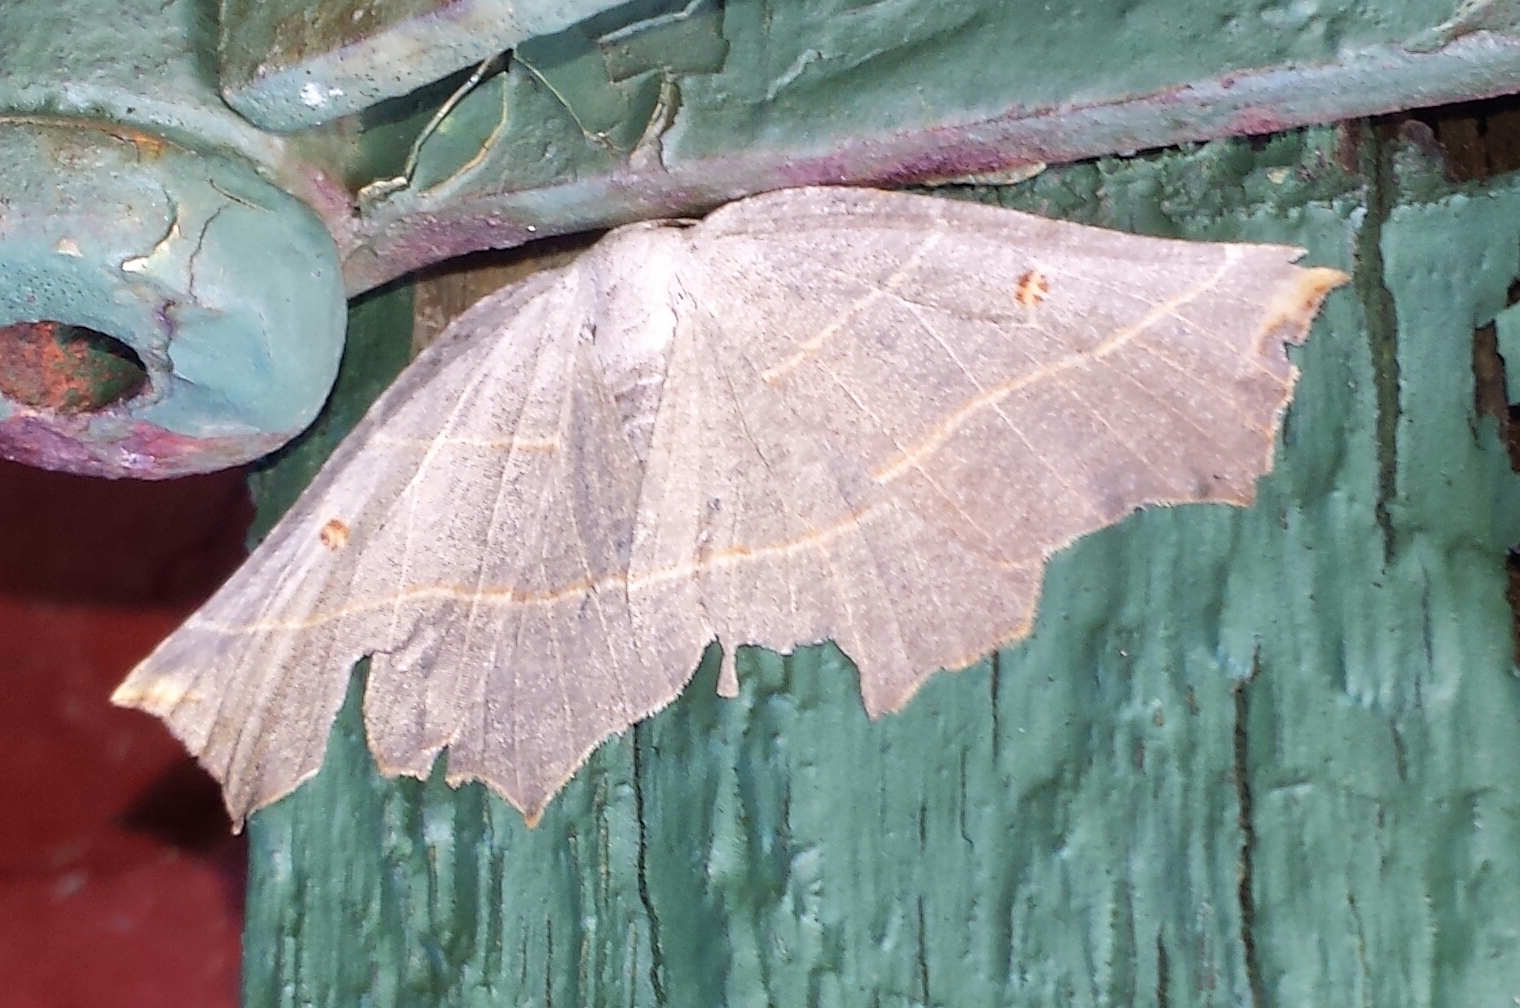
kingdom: Animalia
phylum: Arthropoda
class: Insecta
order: Lepidoptera
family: Geometridae
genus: Metanema
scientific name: Metanema inatomaria
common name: Pale metanema
